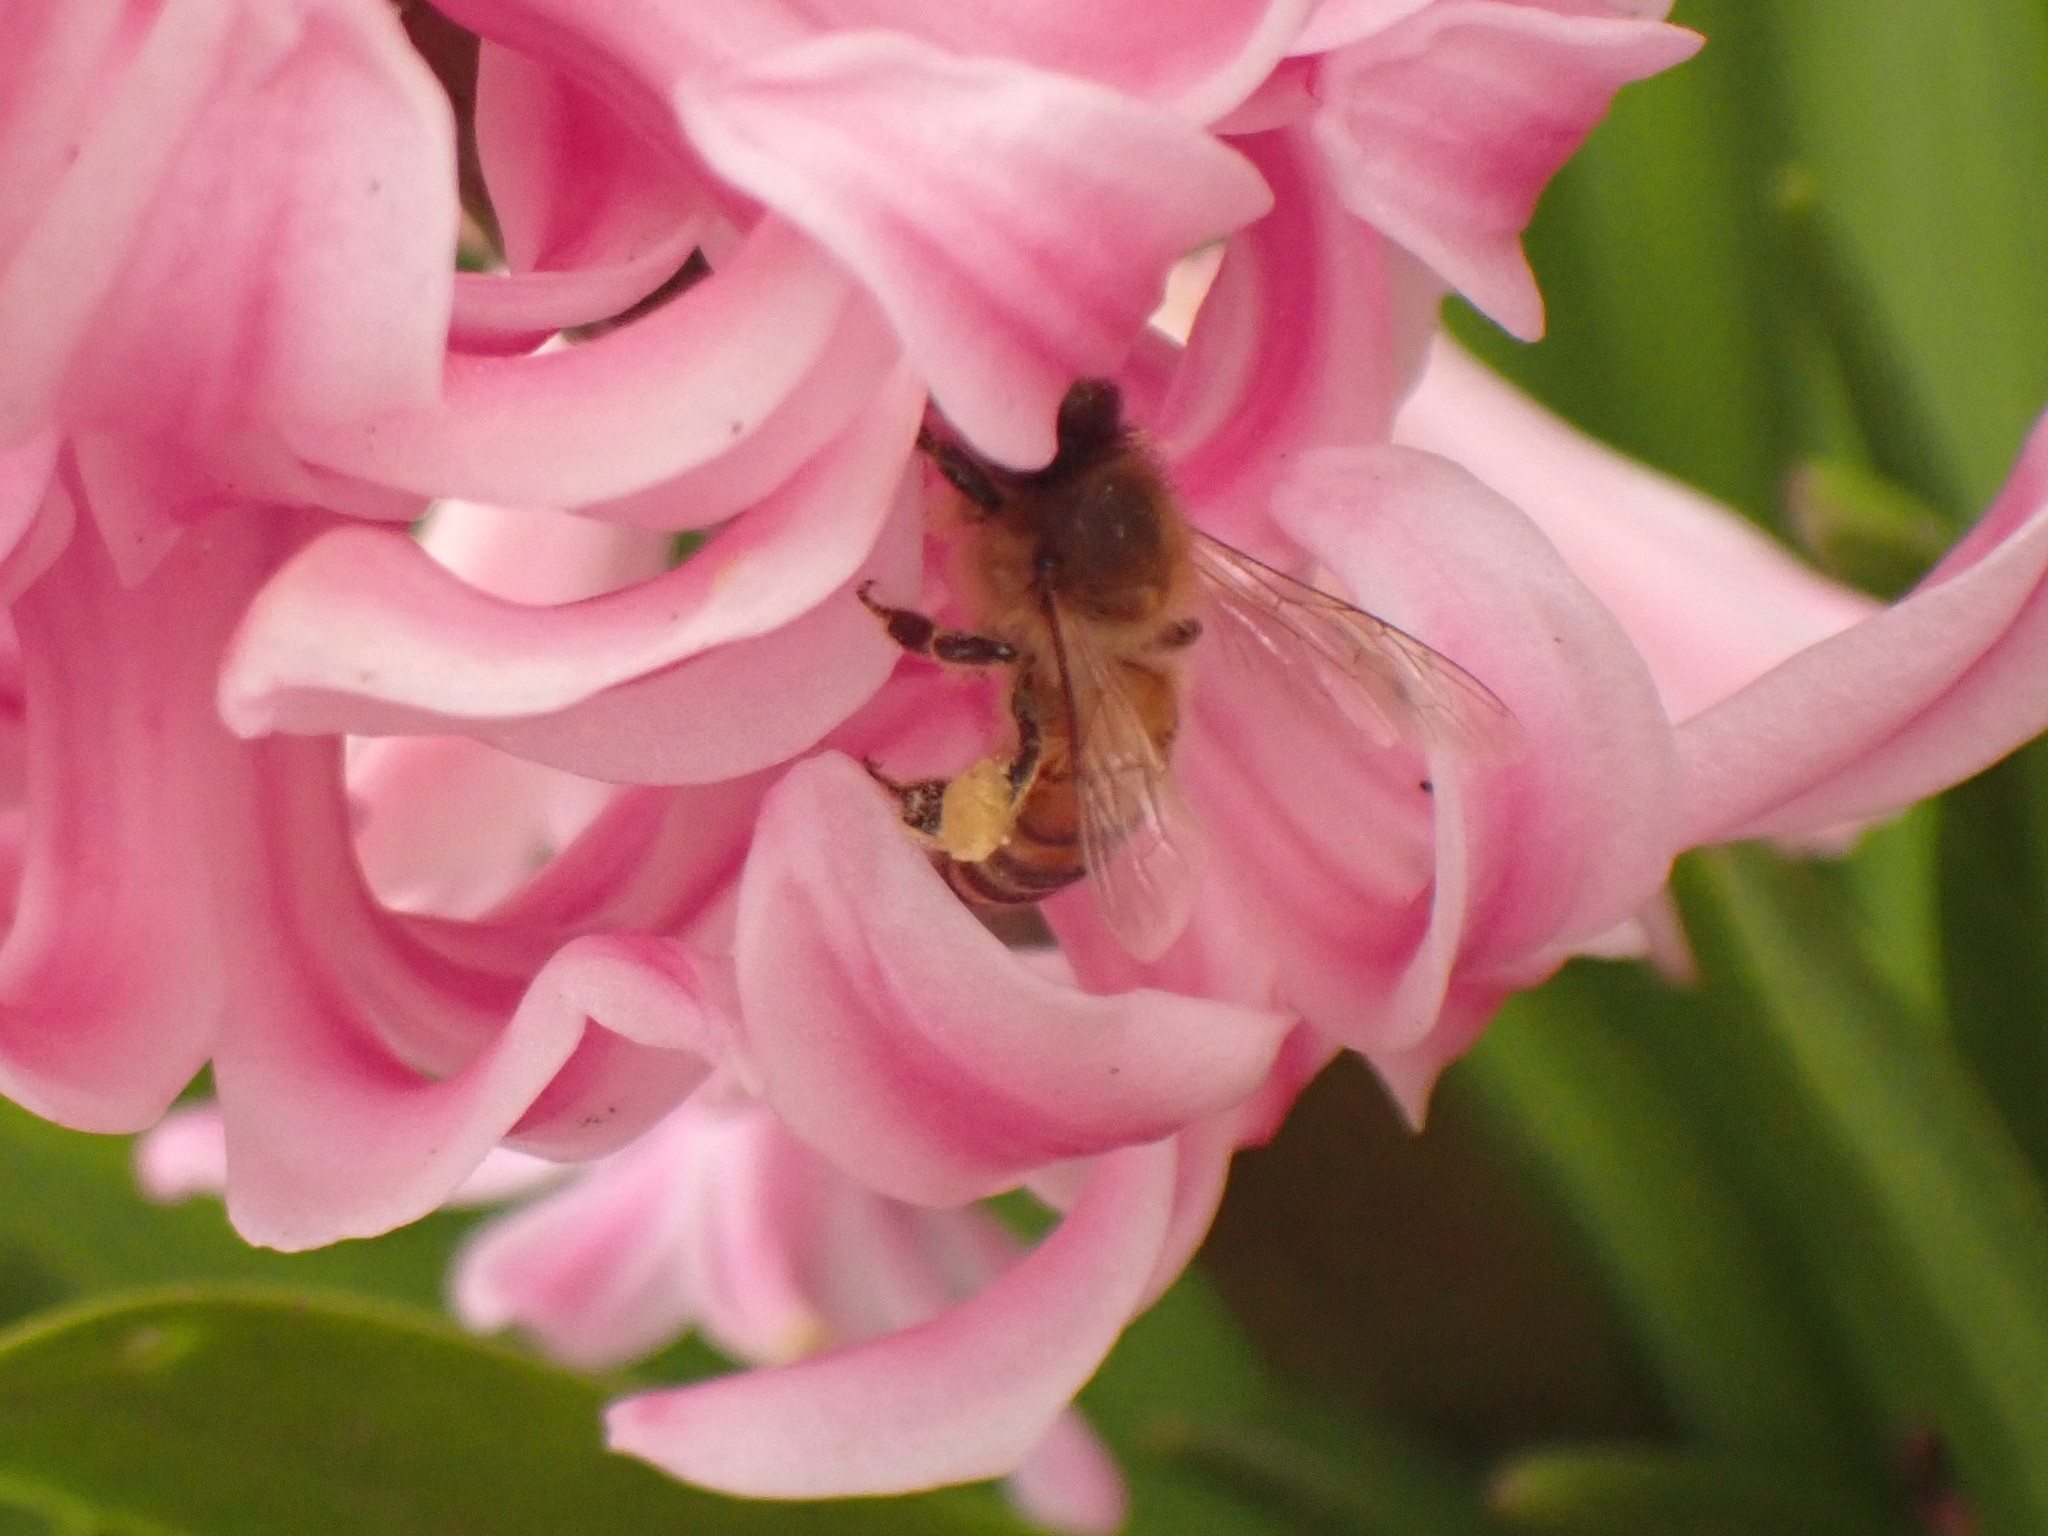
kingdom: Animalia
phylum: Arthropoda
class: Insecta
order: Hymenoptera
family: Apidae
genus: Apis
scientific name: Apis mellifera
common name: Honey bee
